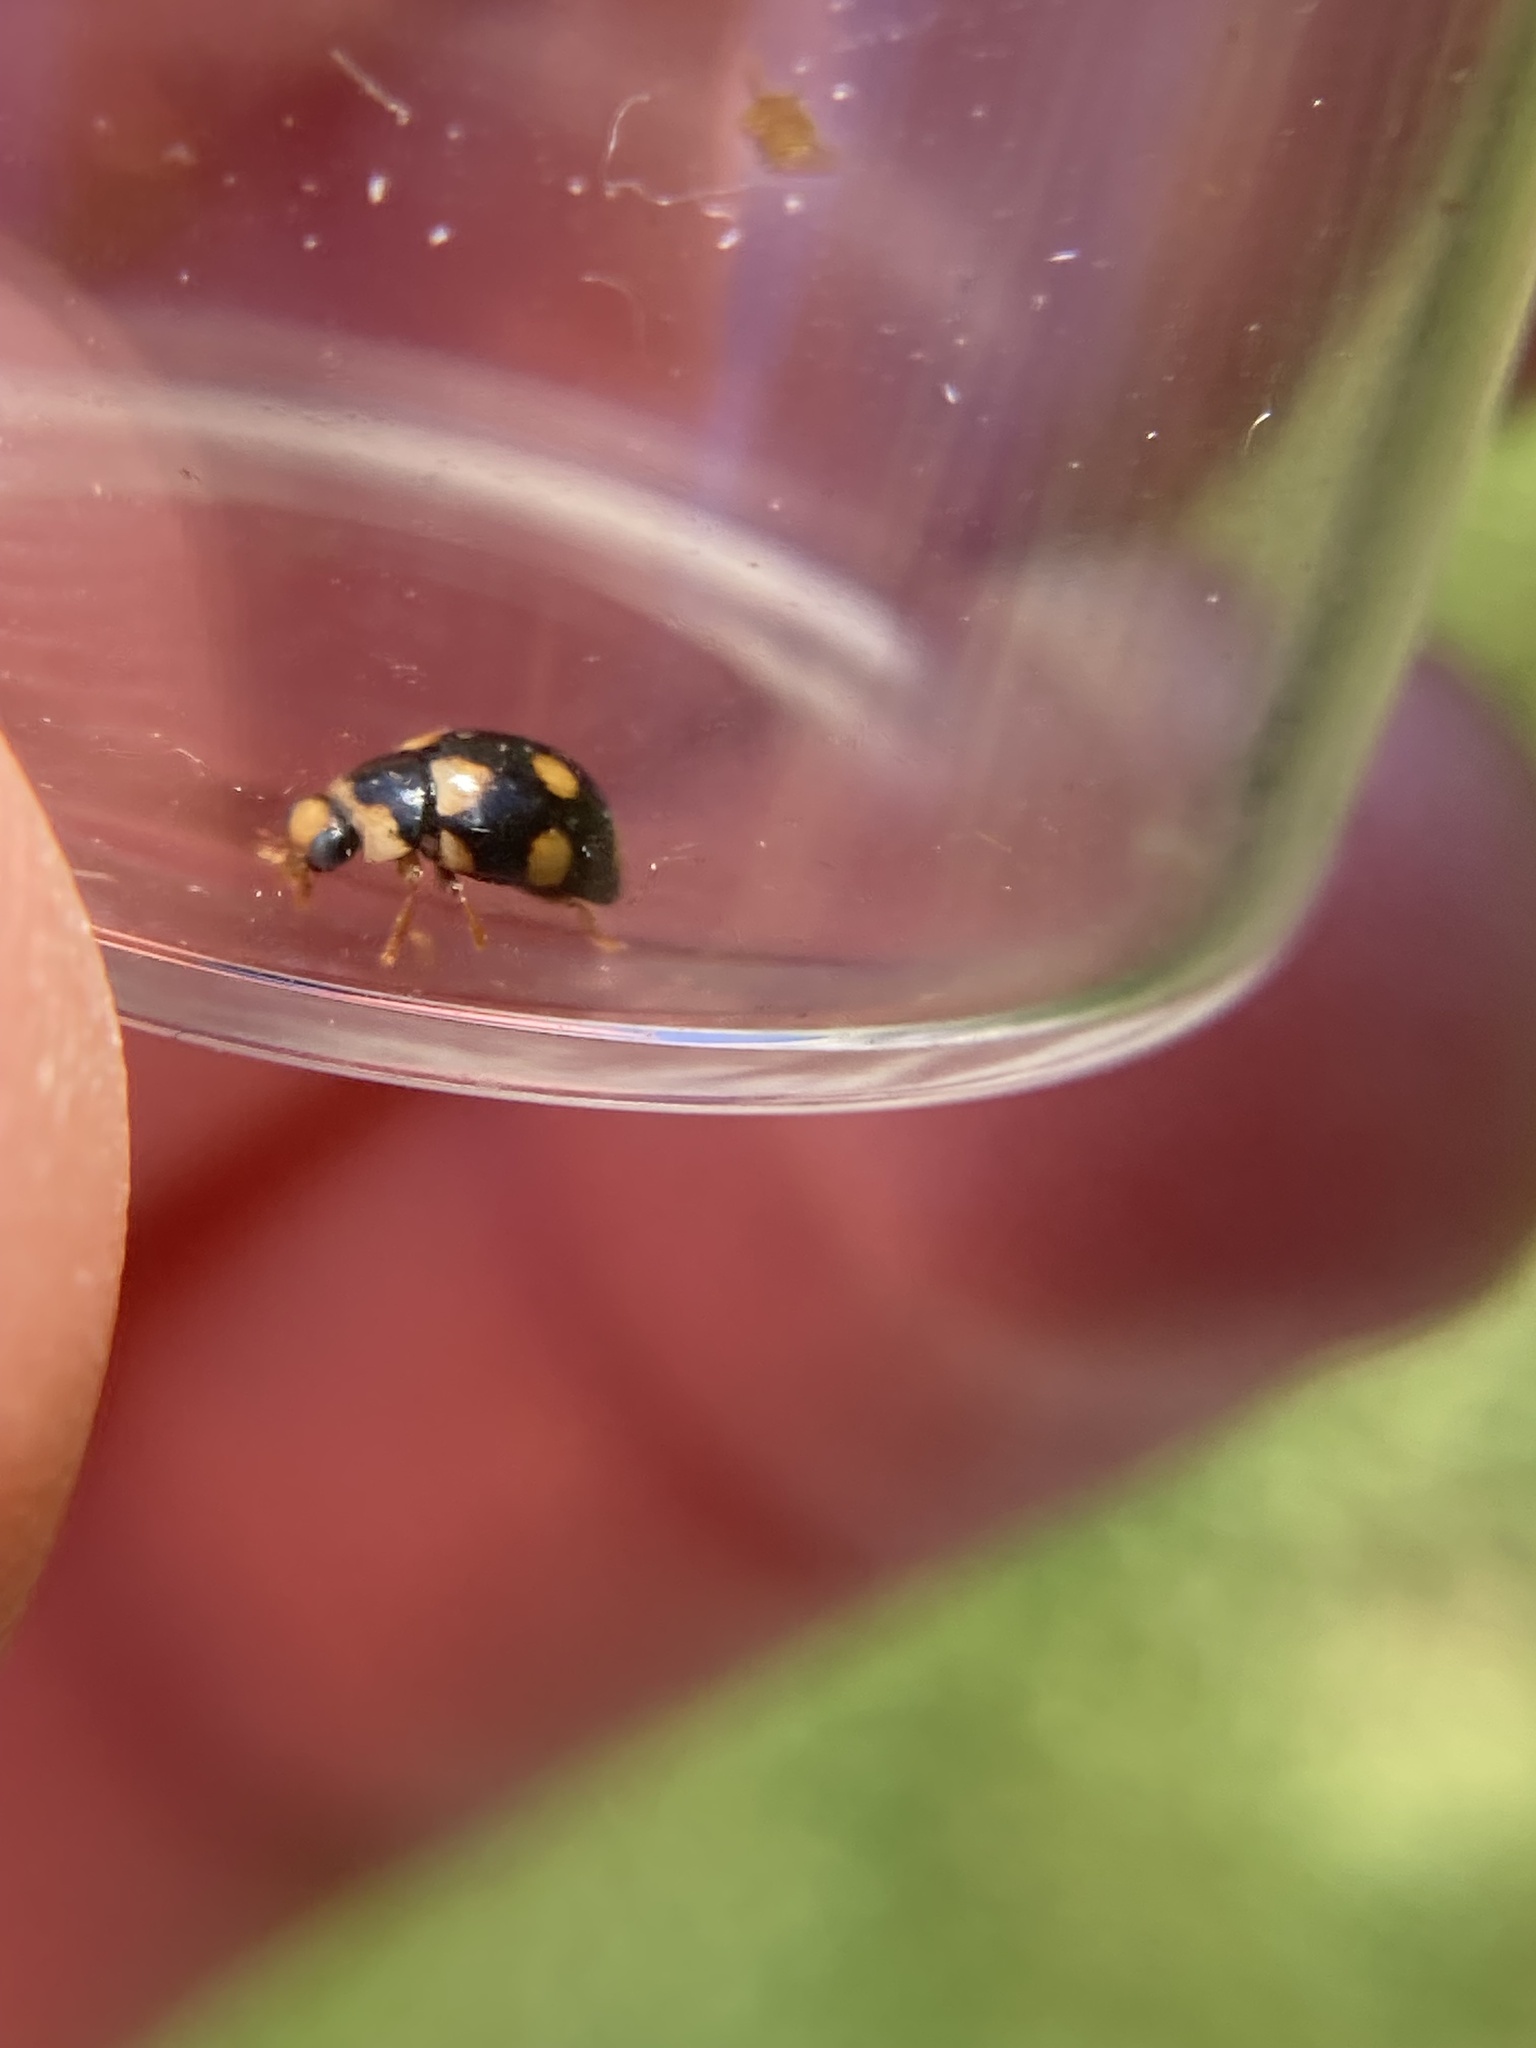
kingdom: Animalia
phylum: Arthropoda
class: Insecta
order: Coleoptera
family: Coccinellidae
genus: Brachiacantha
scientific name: Brachiacantha ursina
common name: Ursine spurleg lady beetle
